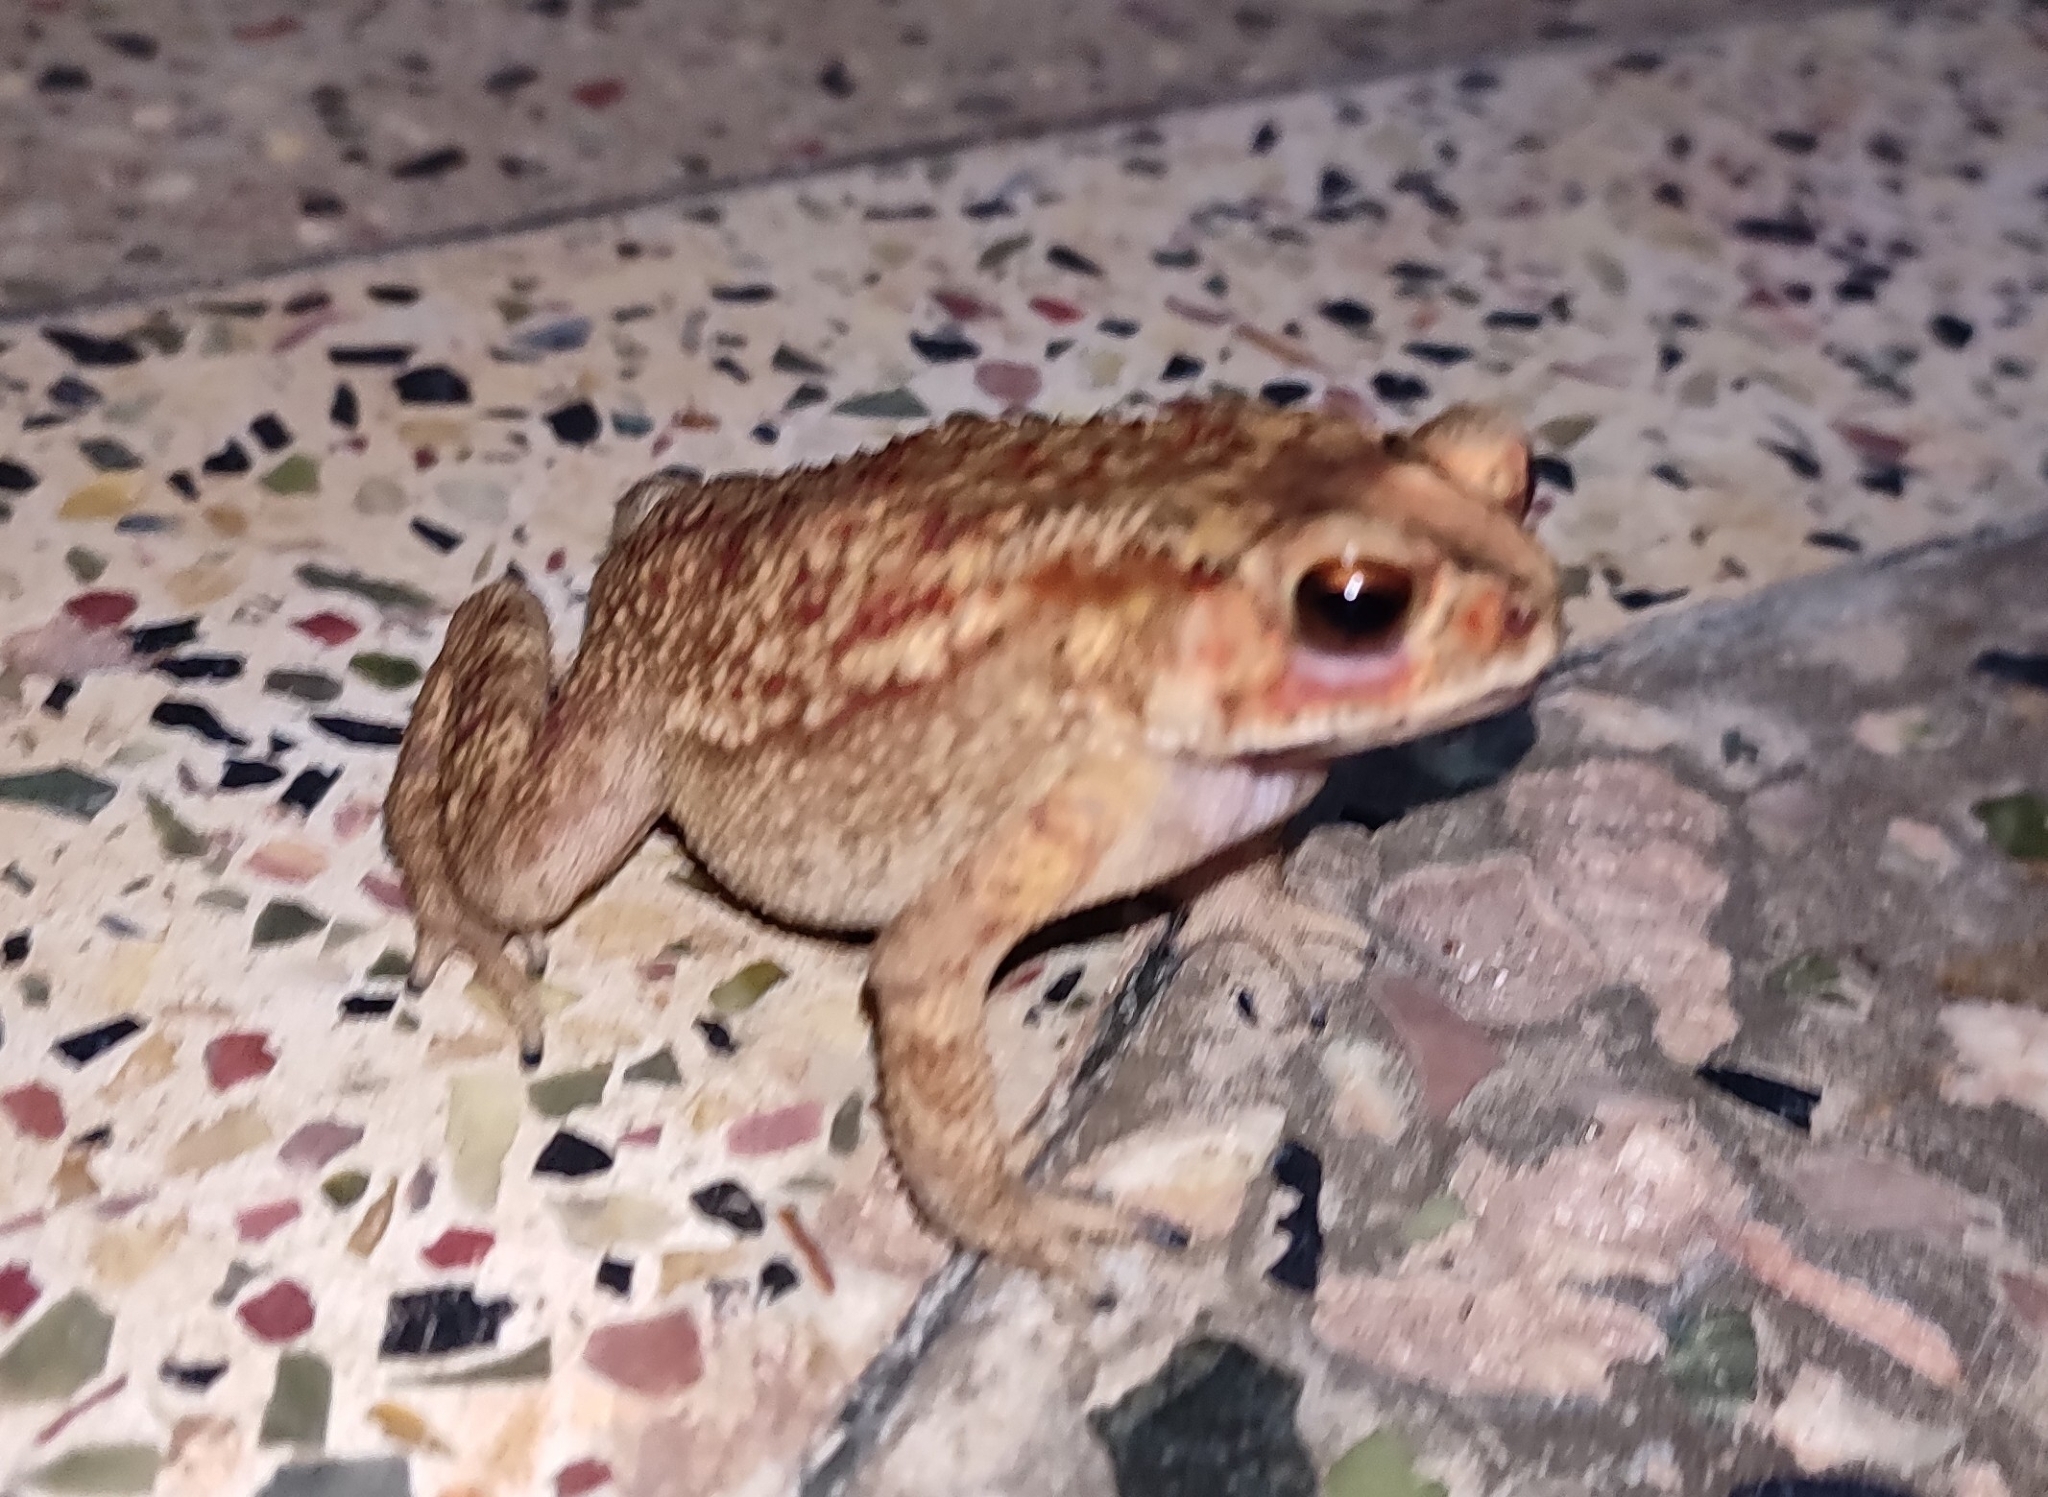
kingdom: Animalia
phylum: Chordata
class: Amphibia
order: Anura
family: Bufonidae
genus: Duttaphrynus
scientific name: Duttaphrynus melanostictus
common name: Common sunda toad
